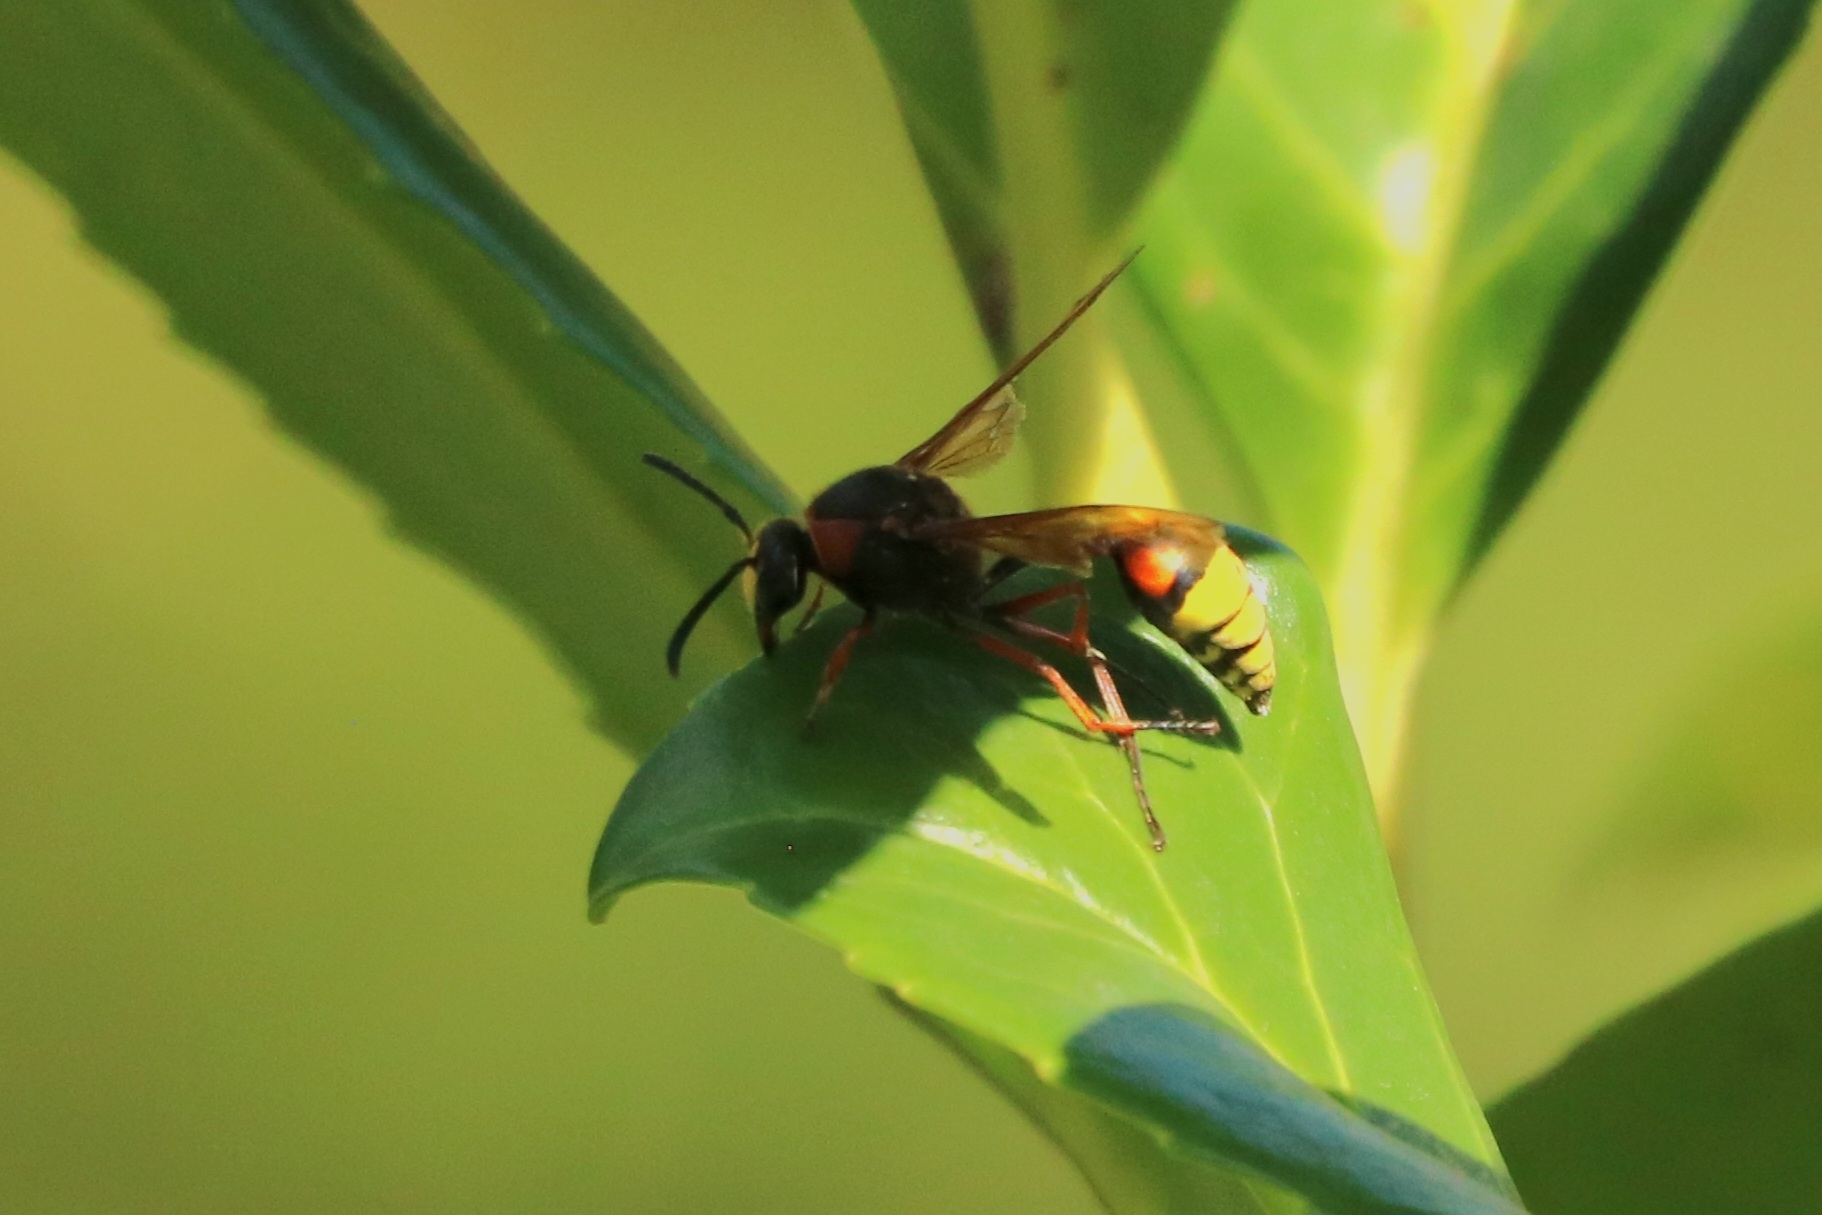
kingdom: Animalia
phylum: Arthropoda
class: Insecta
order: Hymenoptera
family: Eumenidae
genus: Delta
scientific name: Delta unguiculatum
